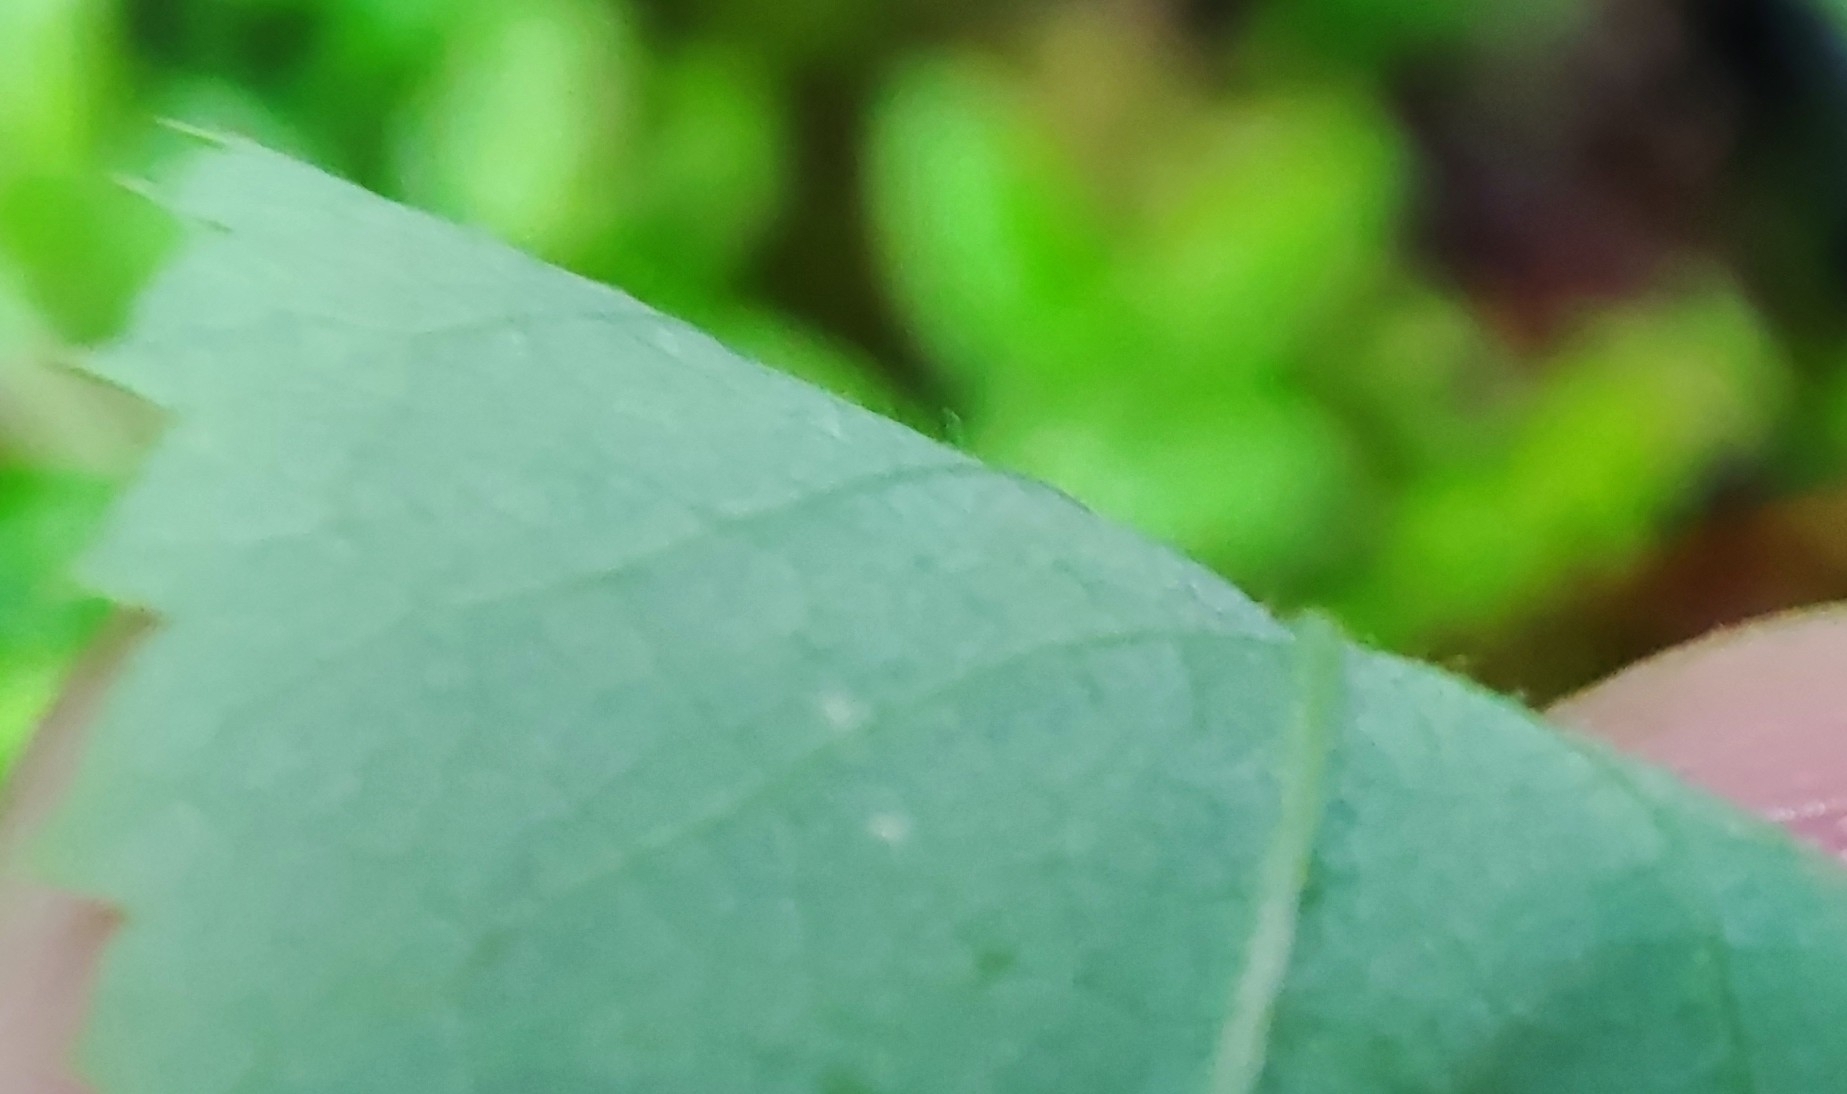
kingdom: Plantae
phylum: Tracheophyta
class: Magnoliopsida
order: Rosales
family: Rosaceae
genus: Rosa
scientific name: Rosa acicularis
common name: Prickly rose
